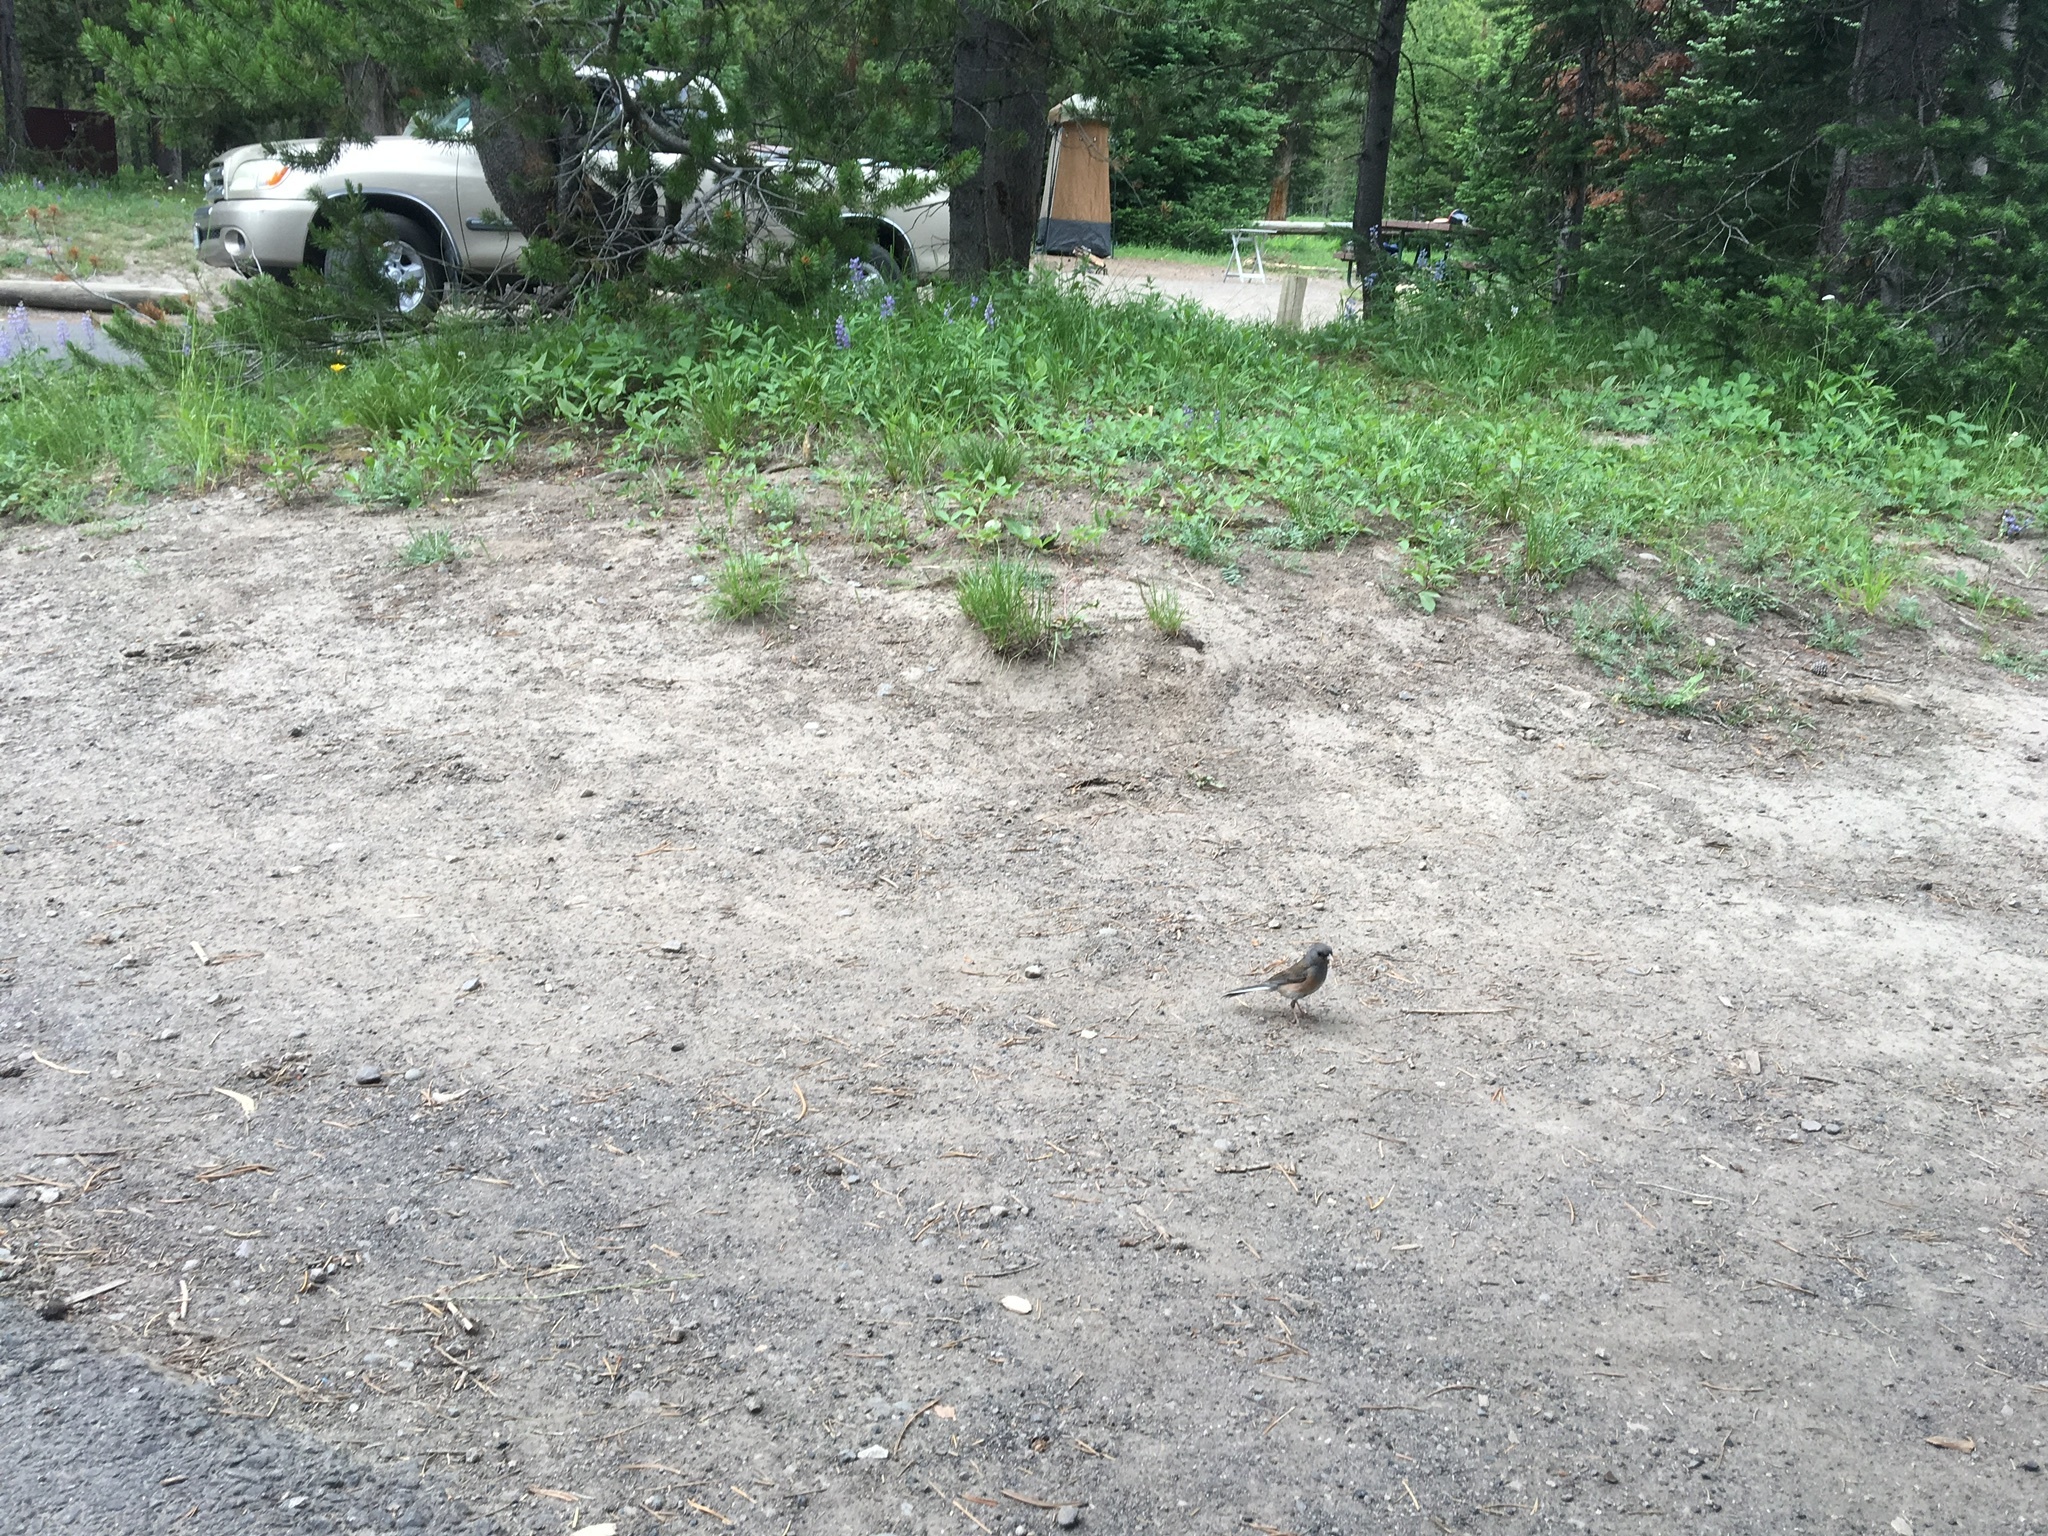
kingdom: Animalia
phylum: Chordata
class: Aves
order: Passeriformes
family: Passerellidae
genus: Junco
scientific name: Junco hyemalis
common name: Dark-eyed junco
